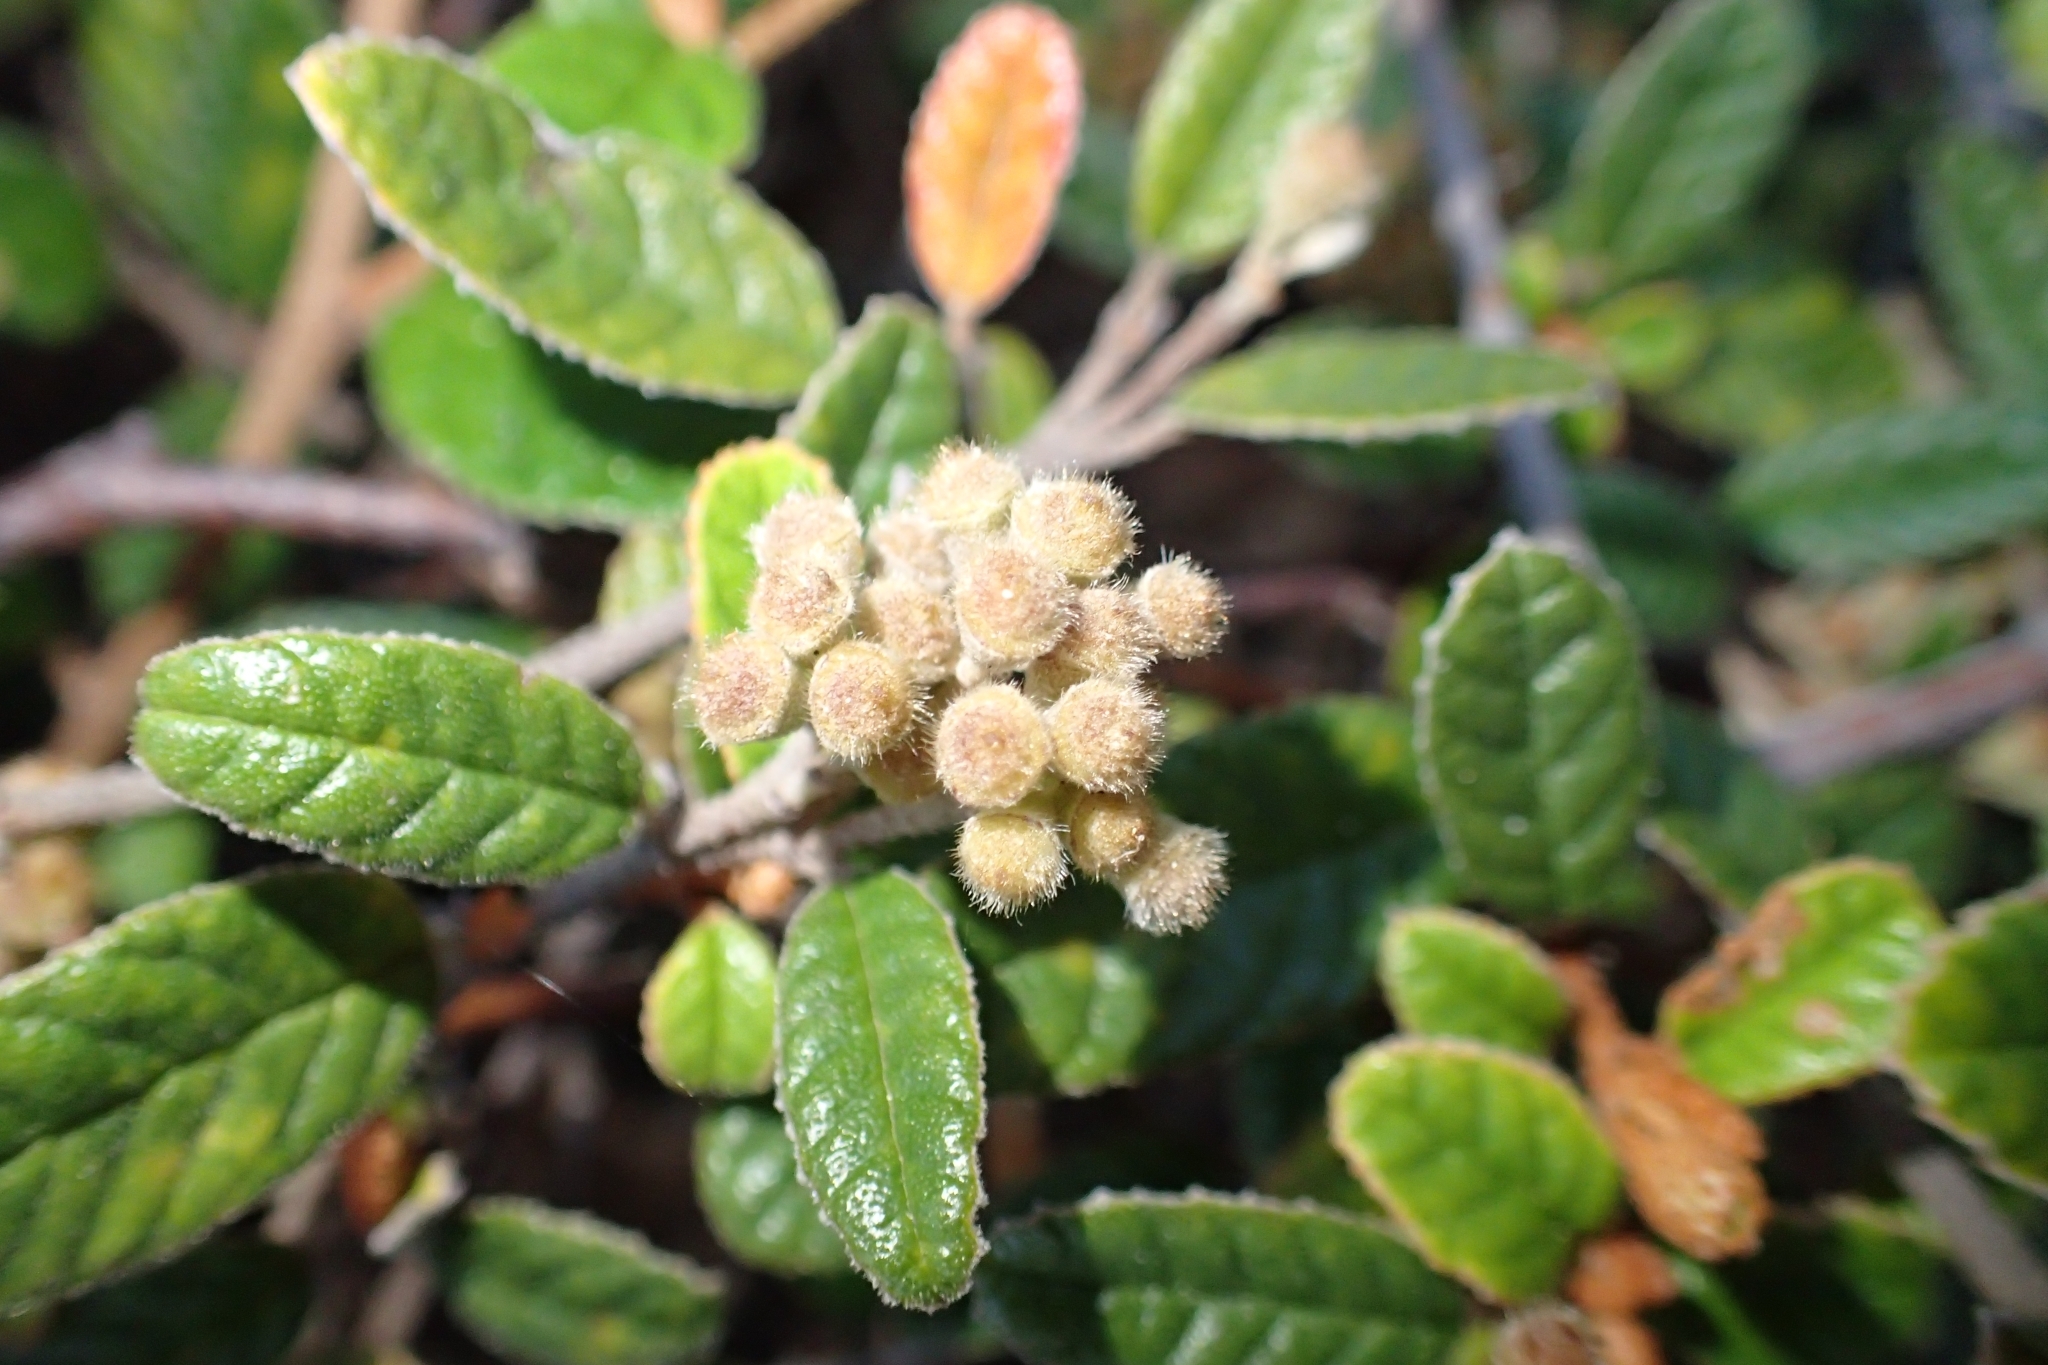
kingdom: Plantae
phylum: Tracheophyta
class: Magnoliopsida
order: Rosales
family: Rhamnaceae
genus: Pomaderris
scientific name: Pomaderris edgerleyi
